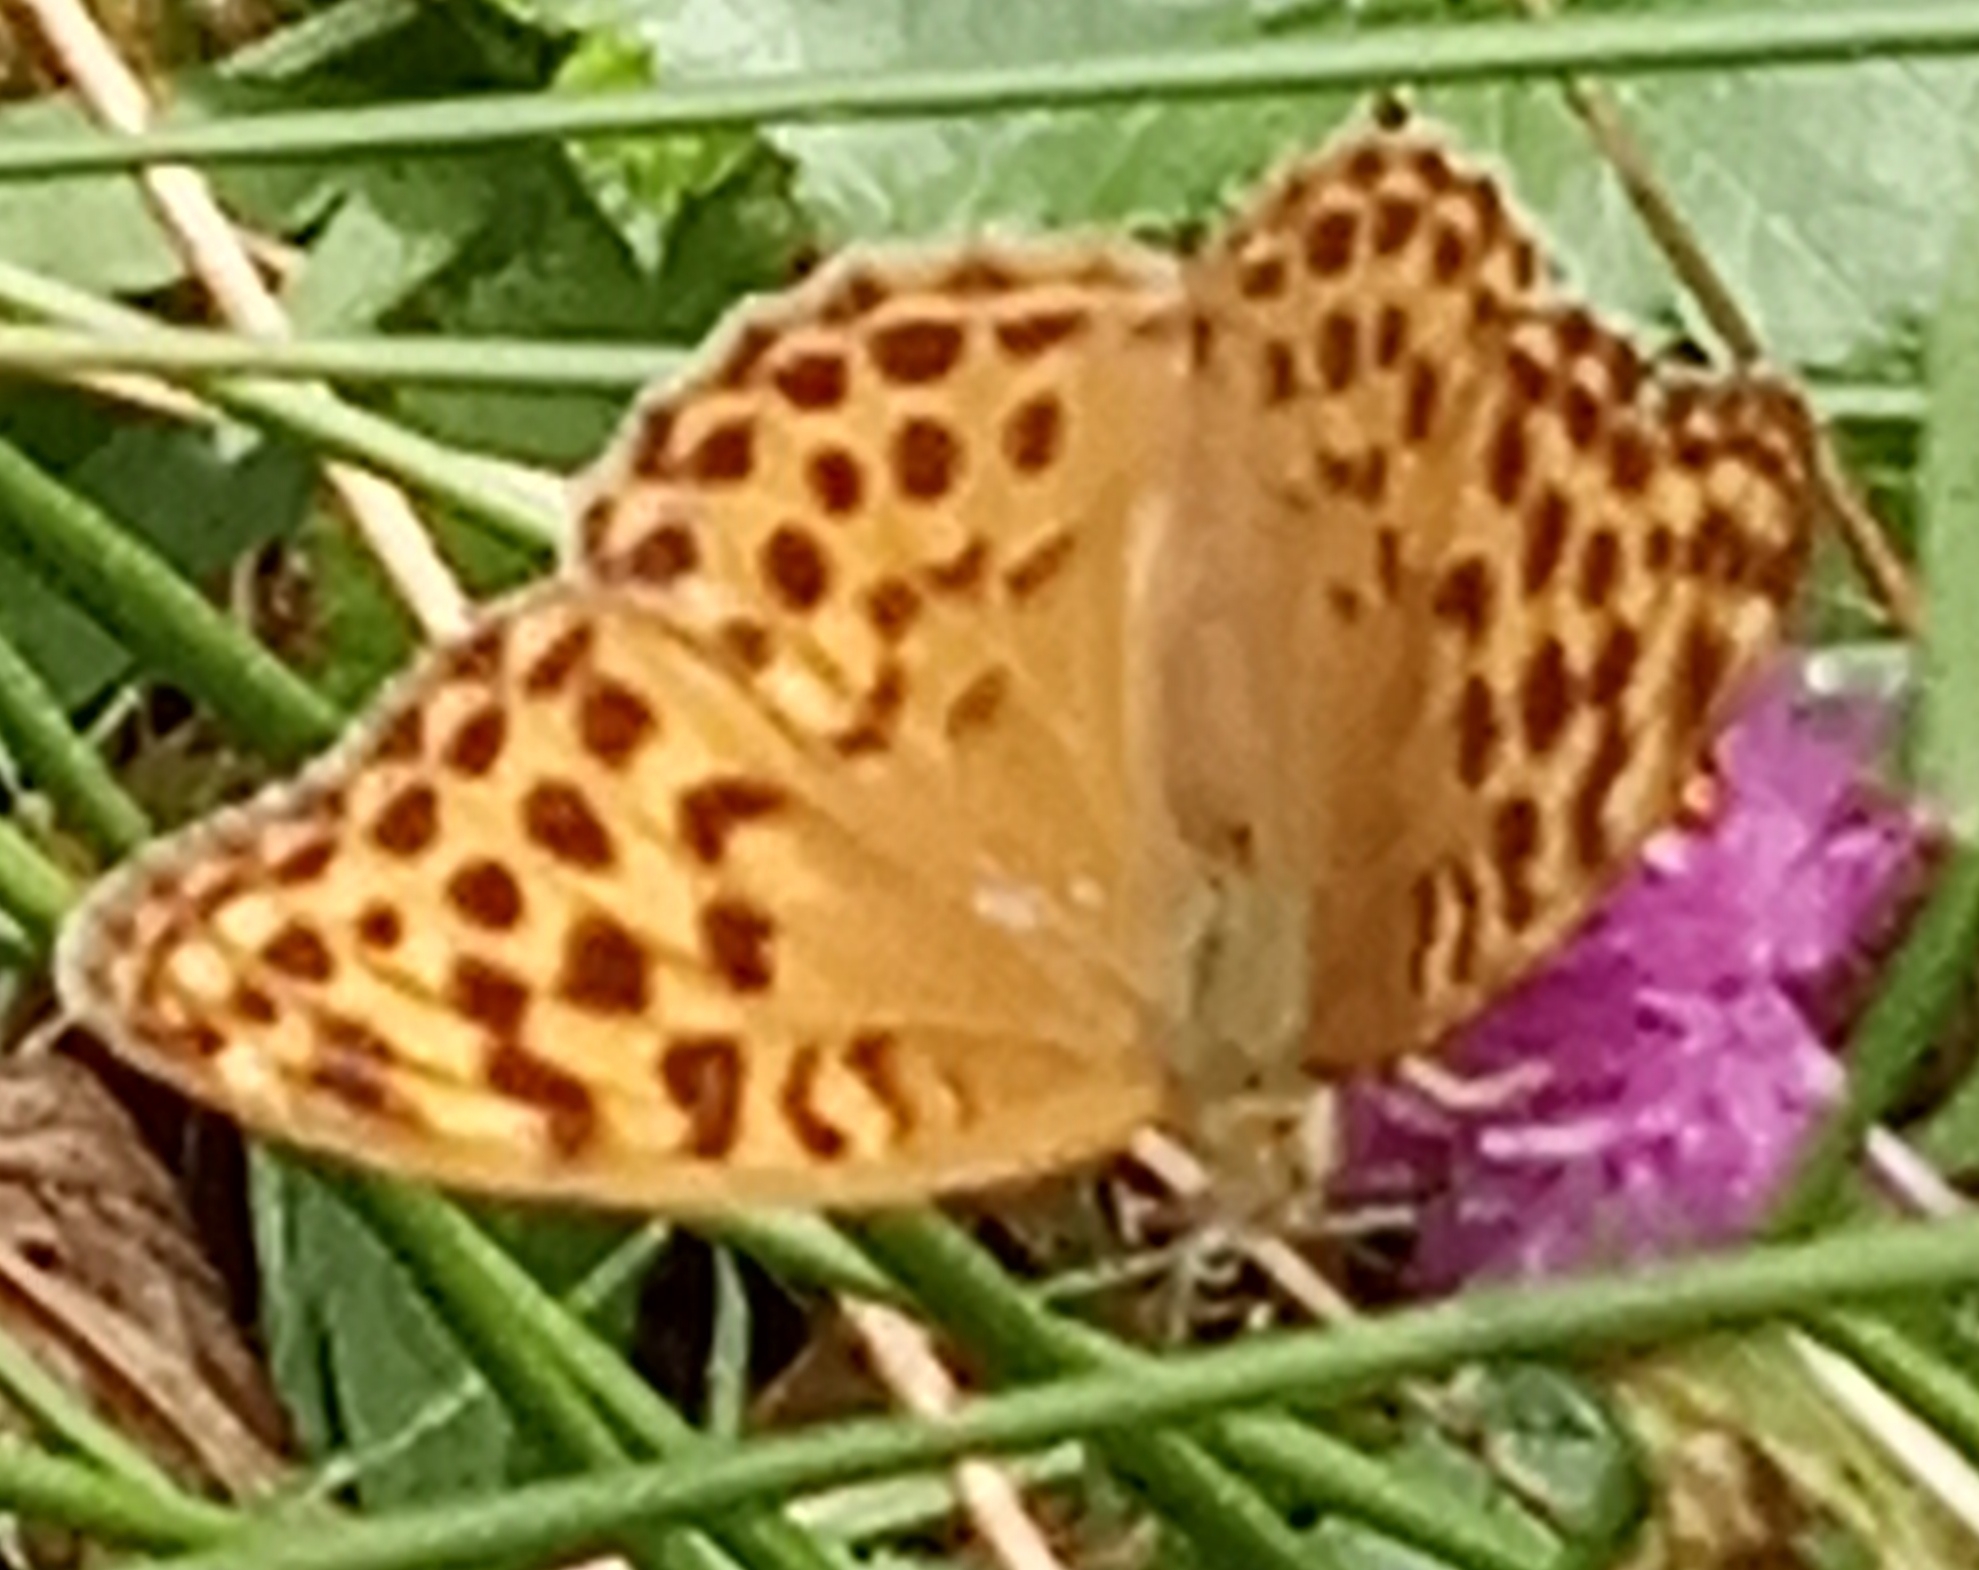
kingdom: Animalia
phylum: Arthropoda
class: Insecta
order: Lepidoptera
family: Nymphalidae
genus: Argynnis
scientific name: Argynnis paphia
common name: Silver-washed fritillary
